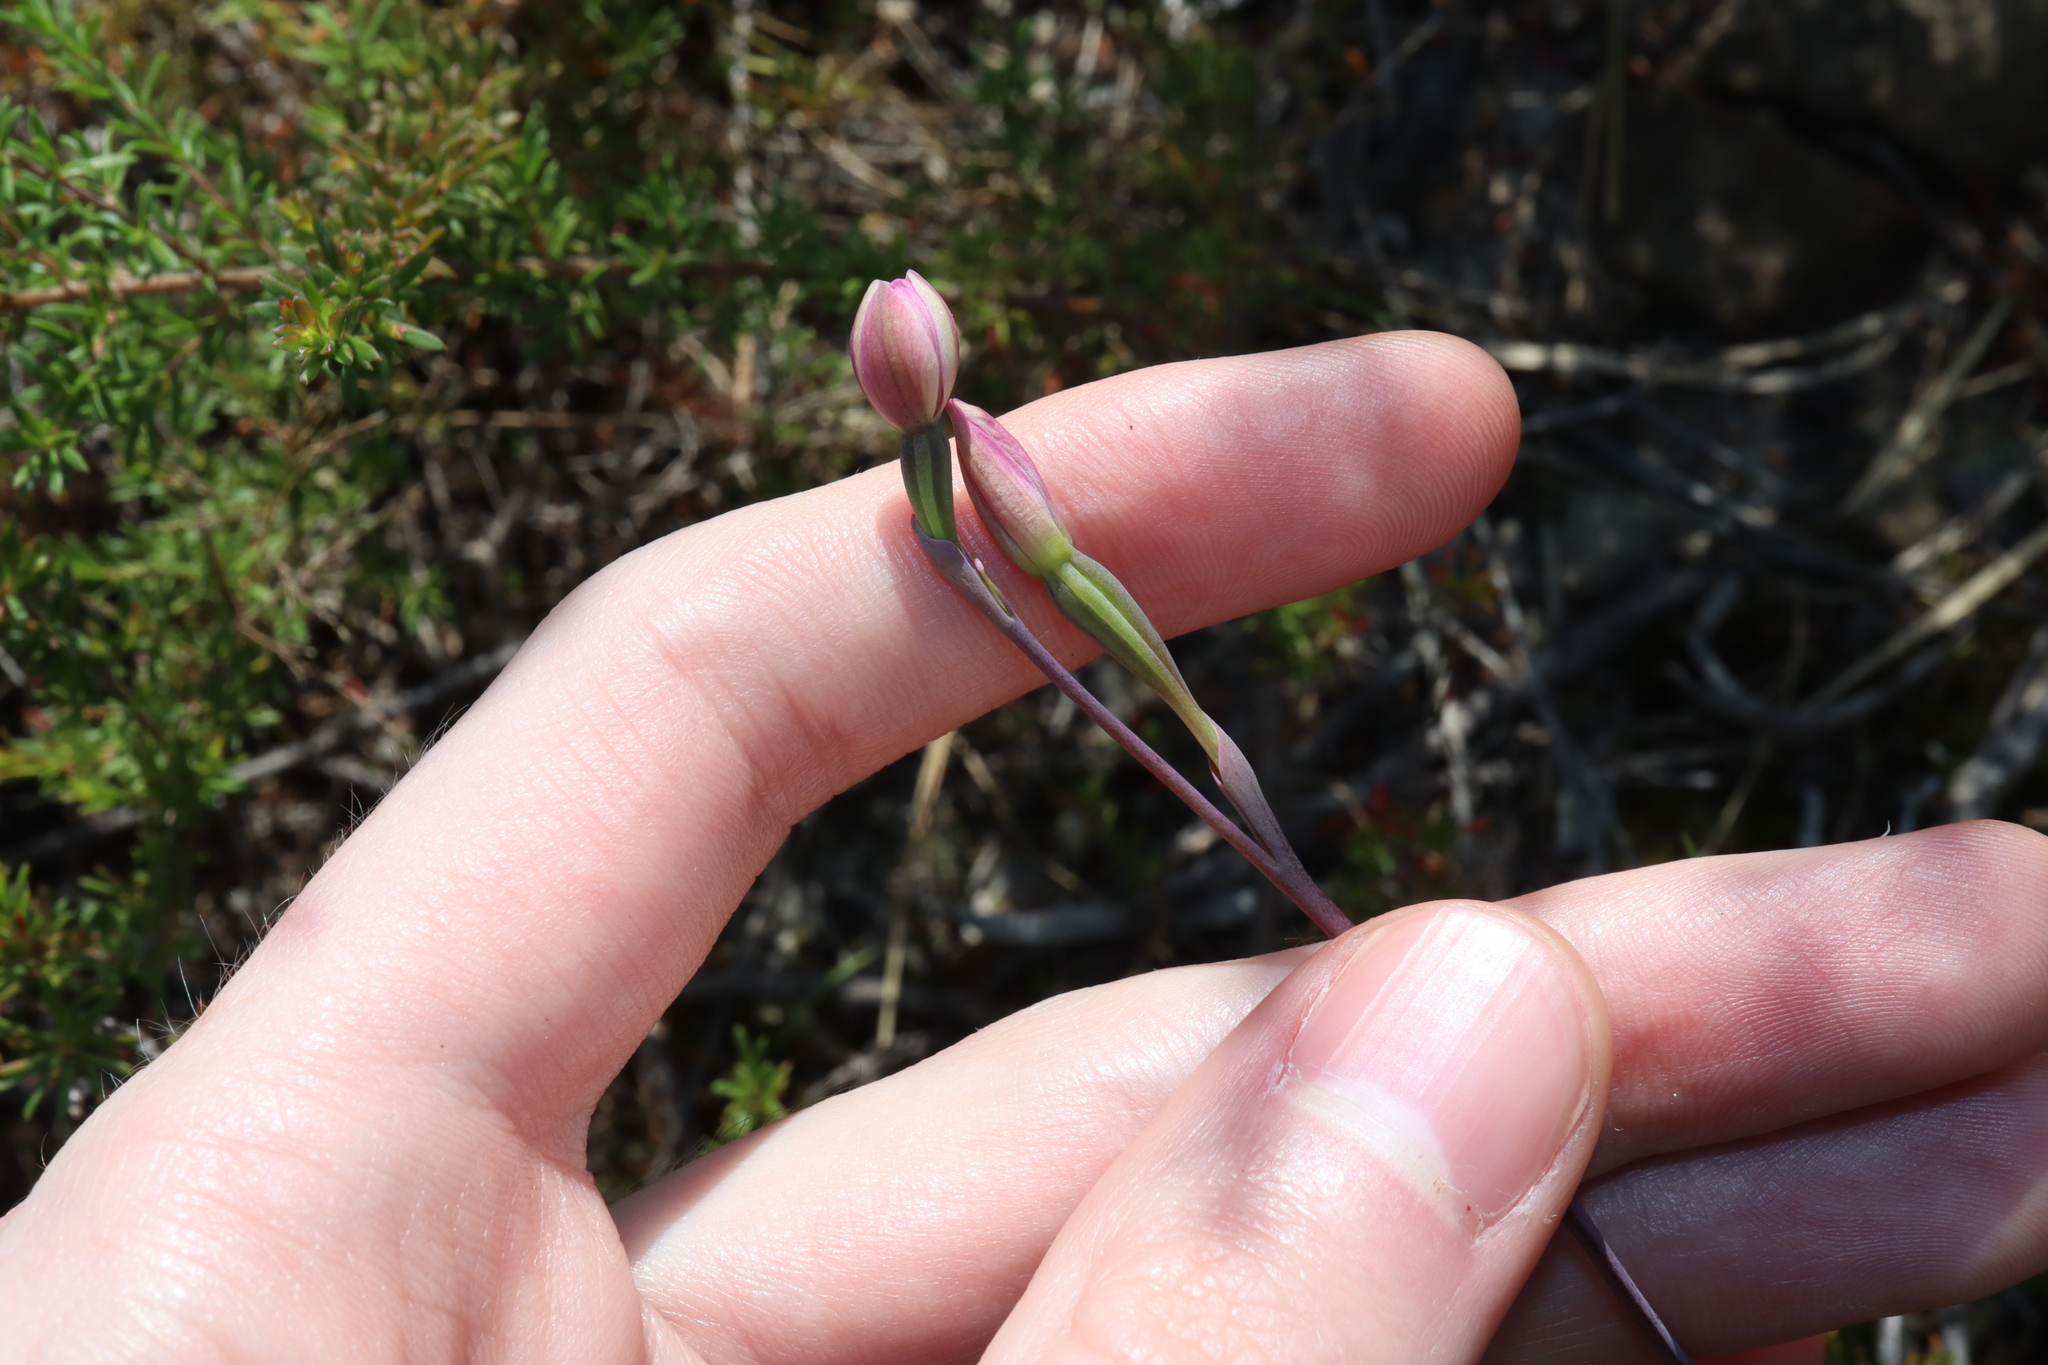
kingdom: Plantae
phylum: Tracheophyta
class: Liliopsida
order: Asparagales
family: Orchidaceae
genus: Thelymitra
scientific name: Thelymitra carnea
